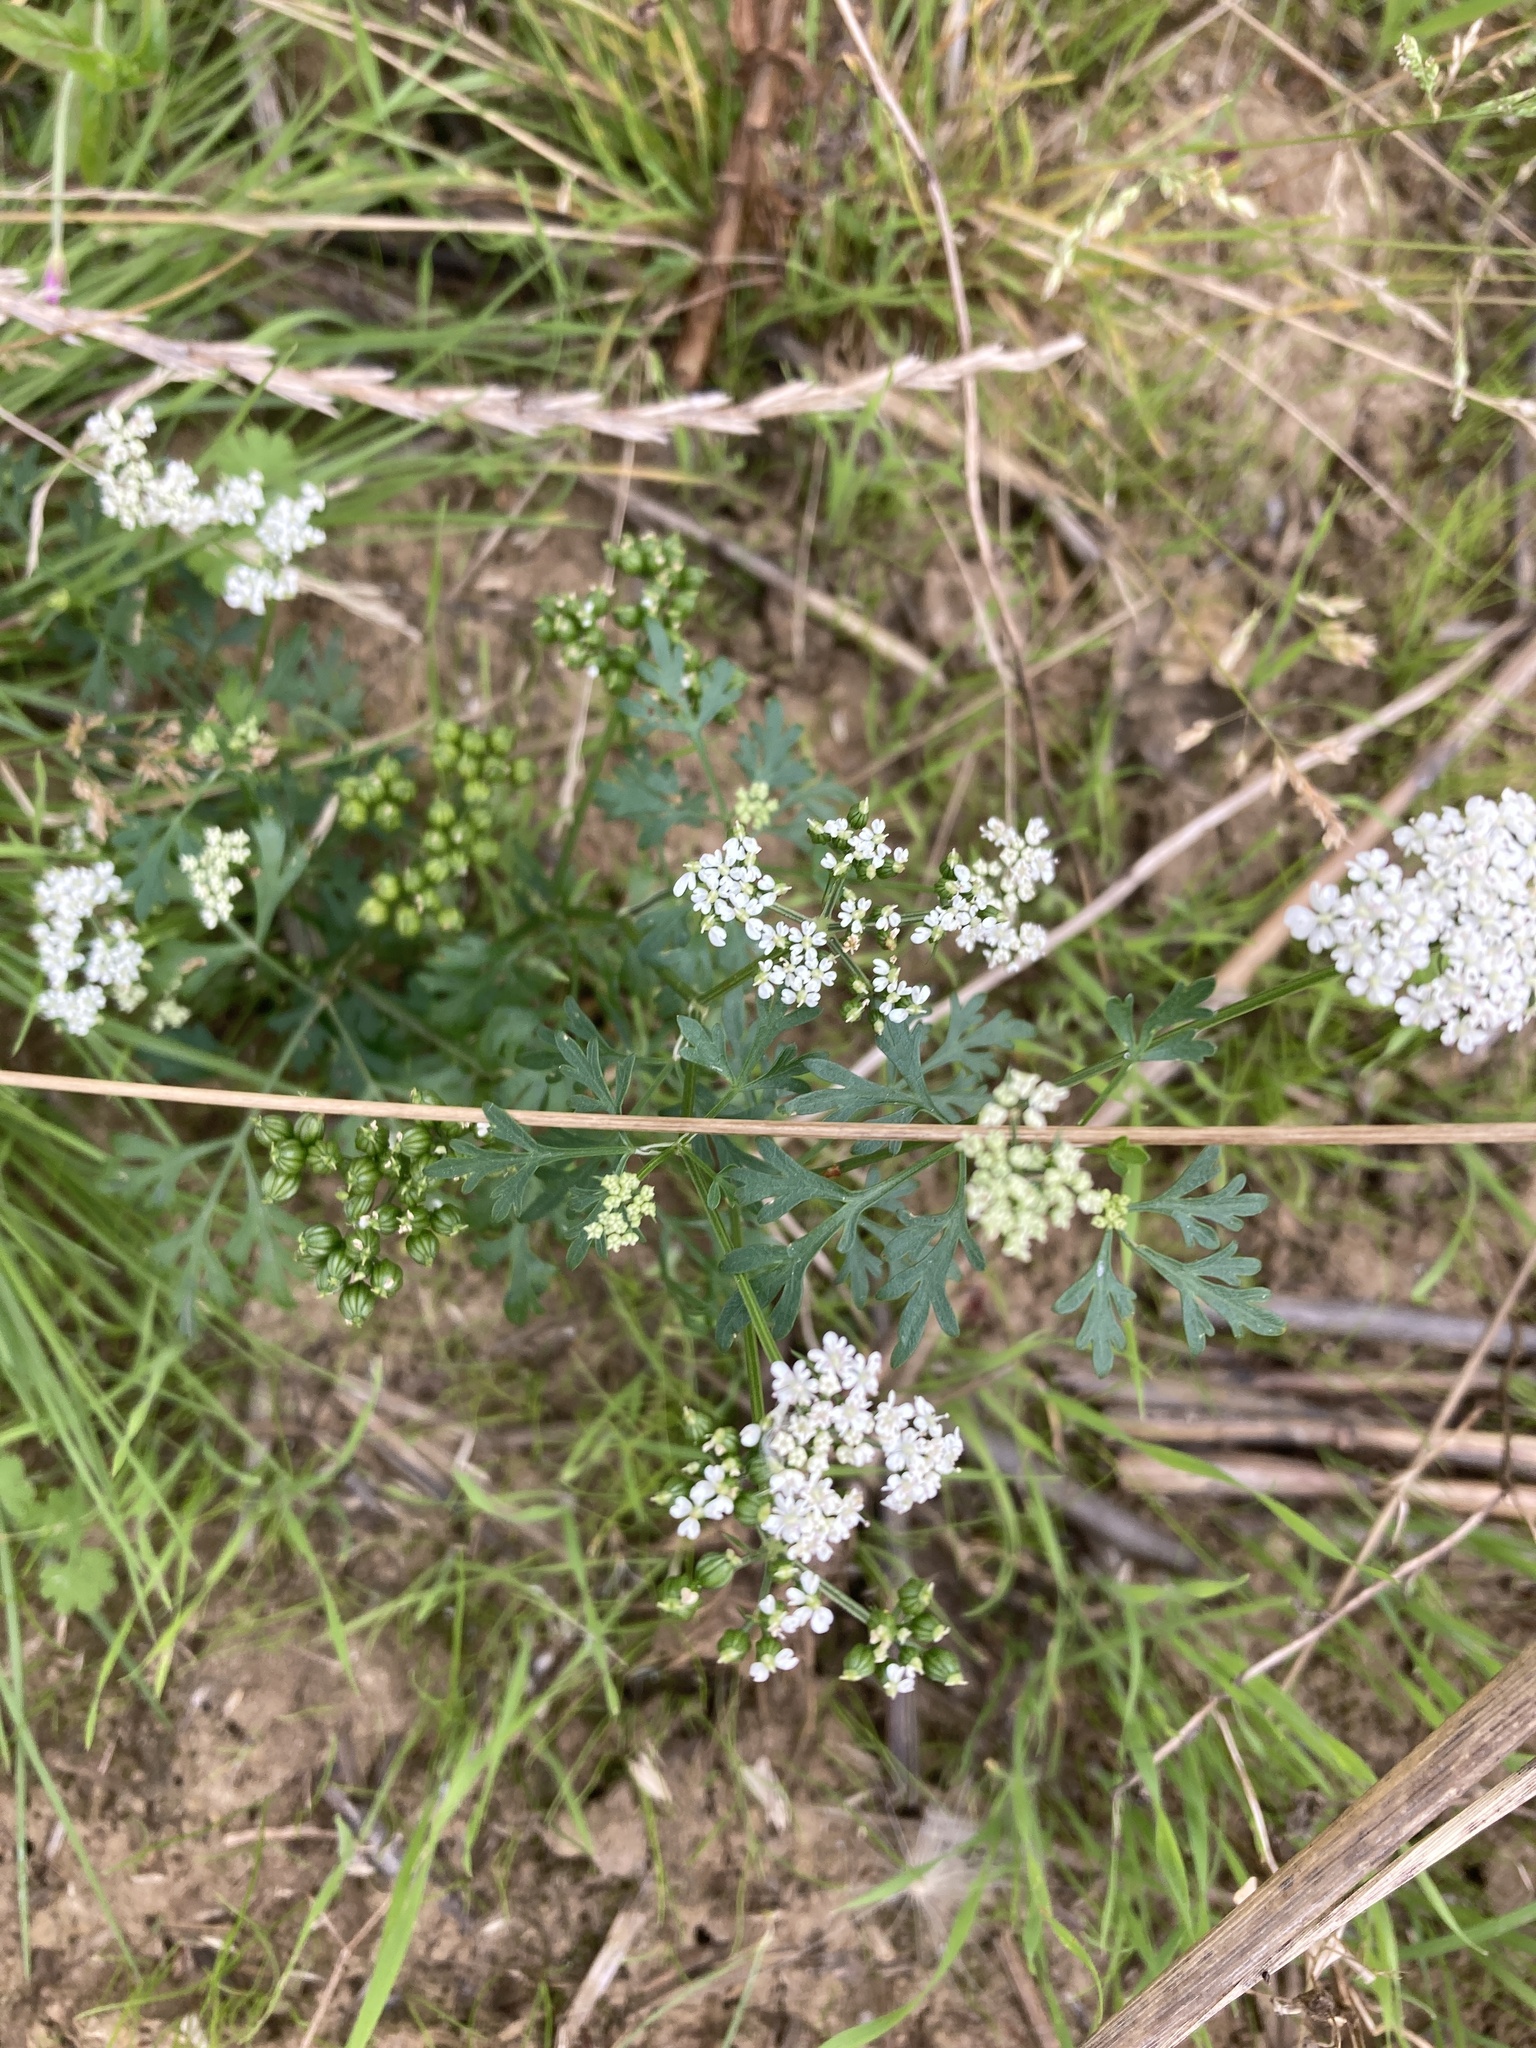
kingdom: Plantae
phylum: Tracheophyta
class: Magnoliopsida
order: Apiales
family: Apiaceae
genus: Aethusa
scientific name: Aethusa cynapium
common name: Fool's parsley
